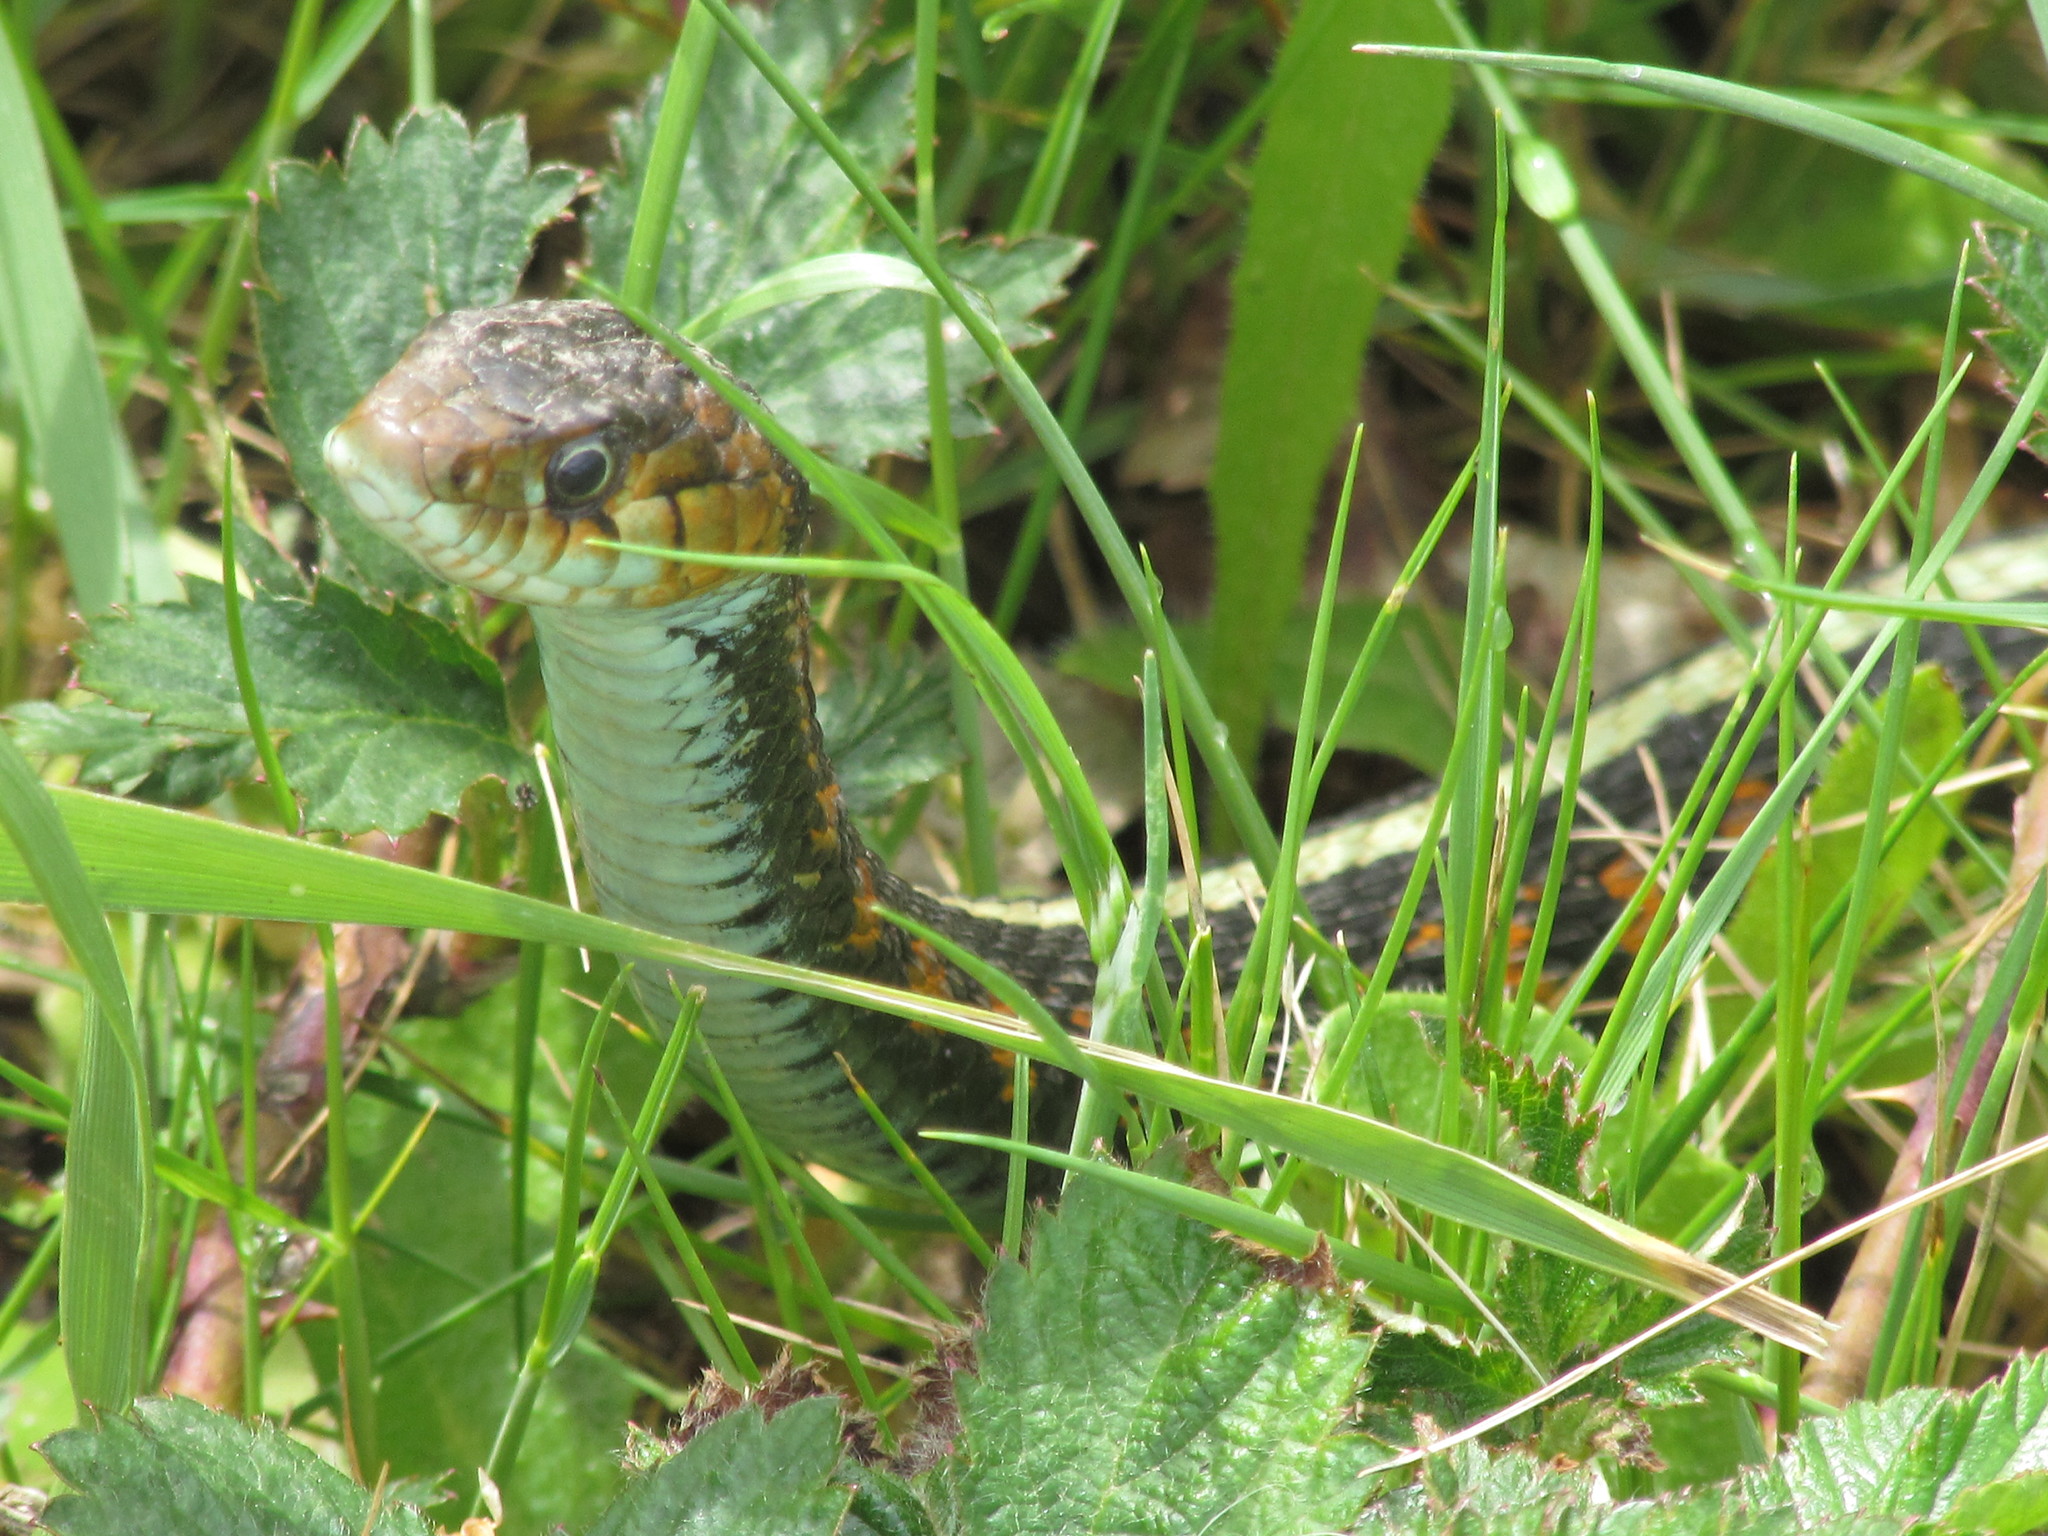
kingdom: Animalia
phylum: Chordata
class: Squamata
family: Colubridae
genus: Thamnophis
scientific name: Thamnophis sirtalis
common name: Common garter snake
